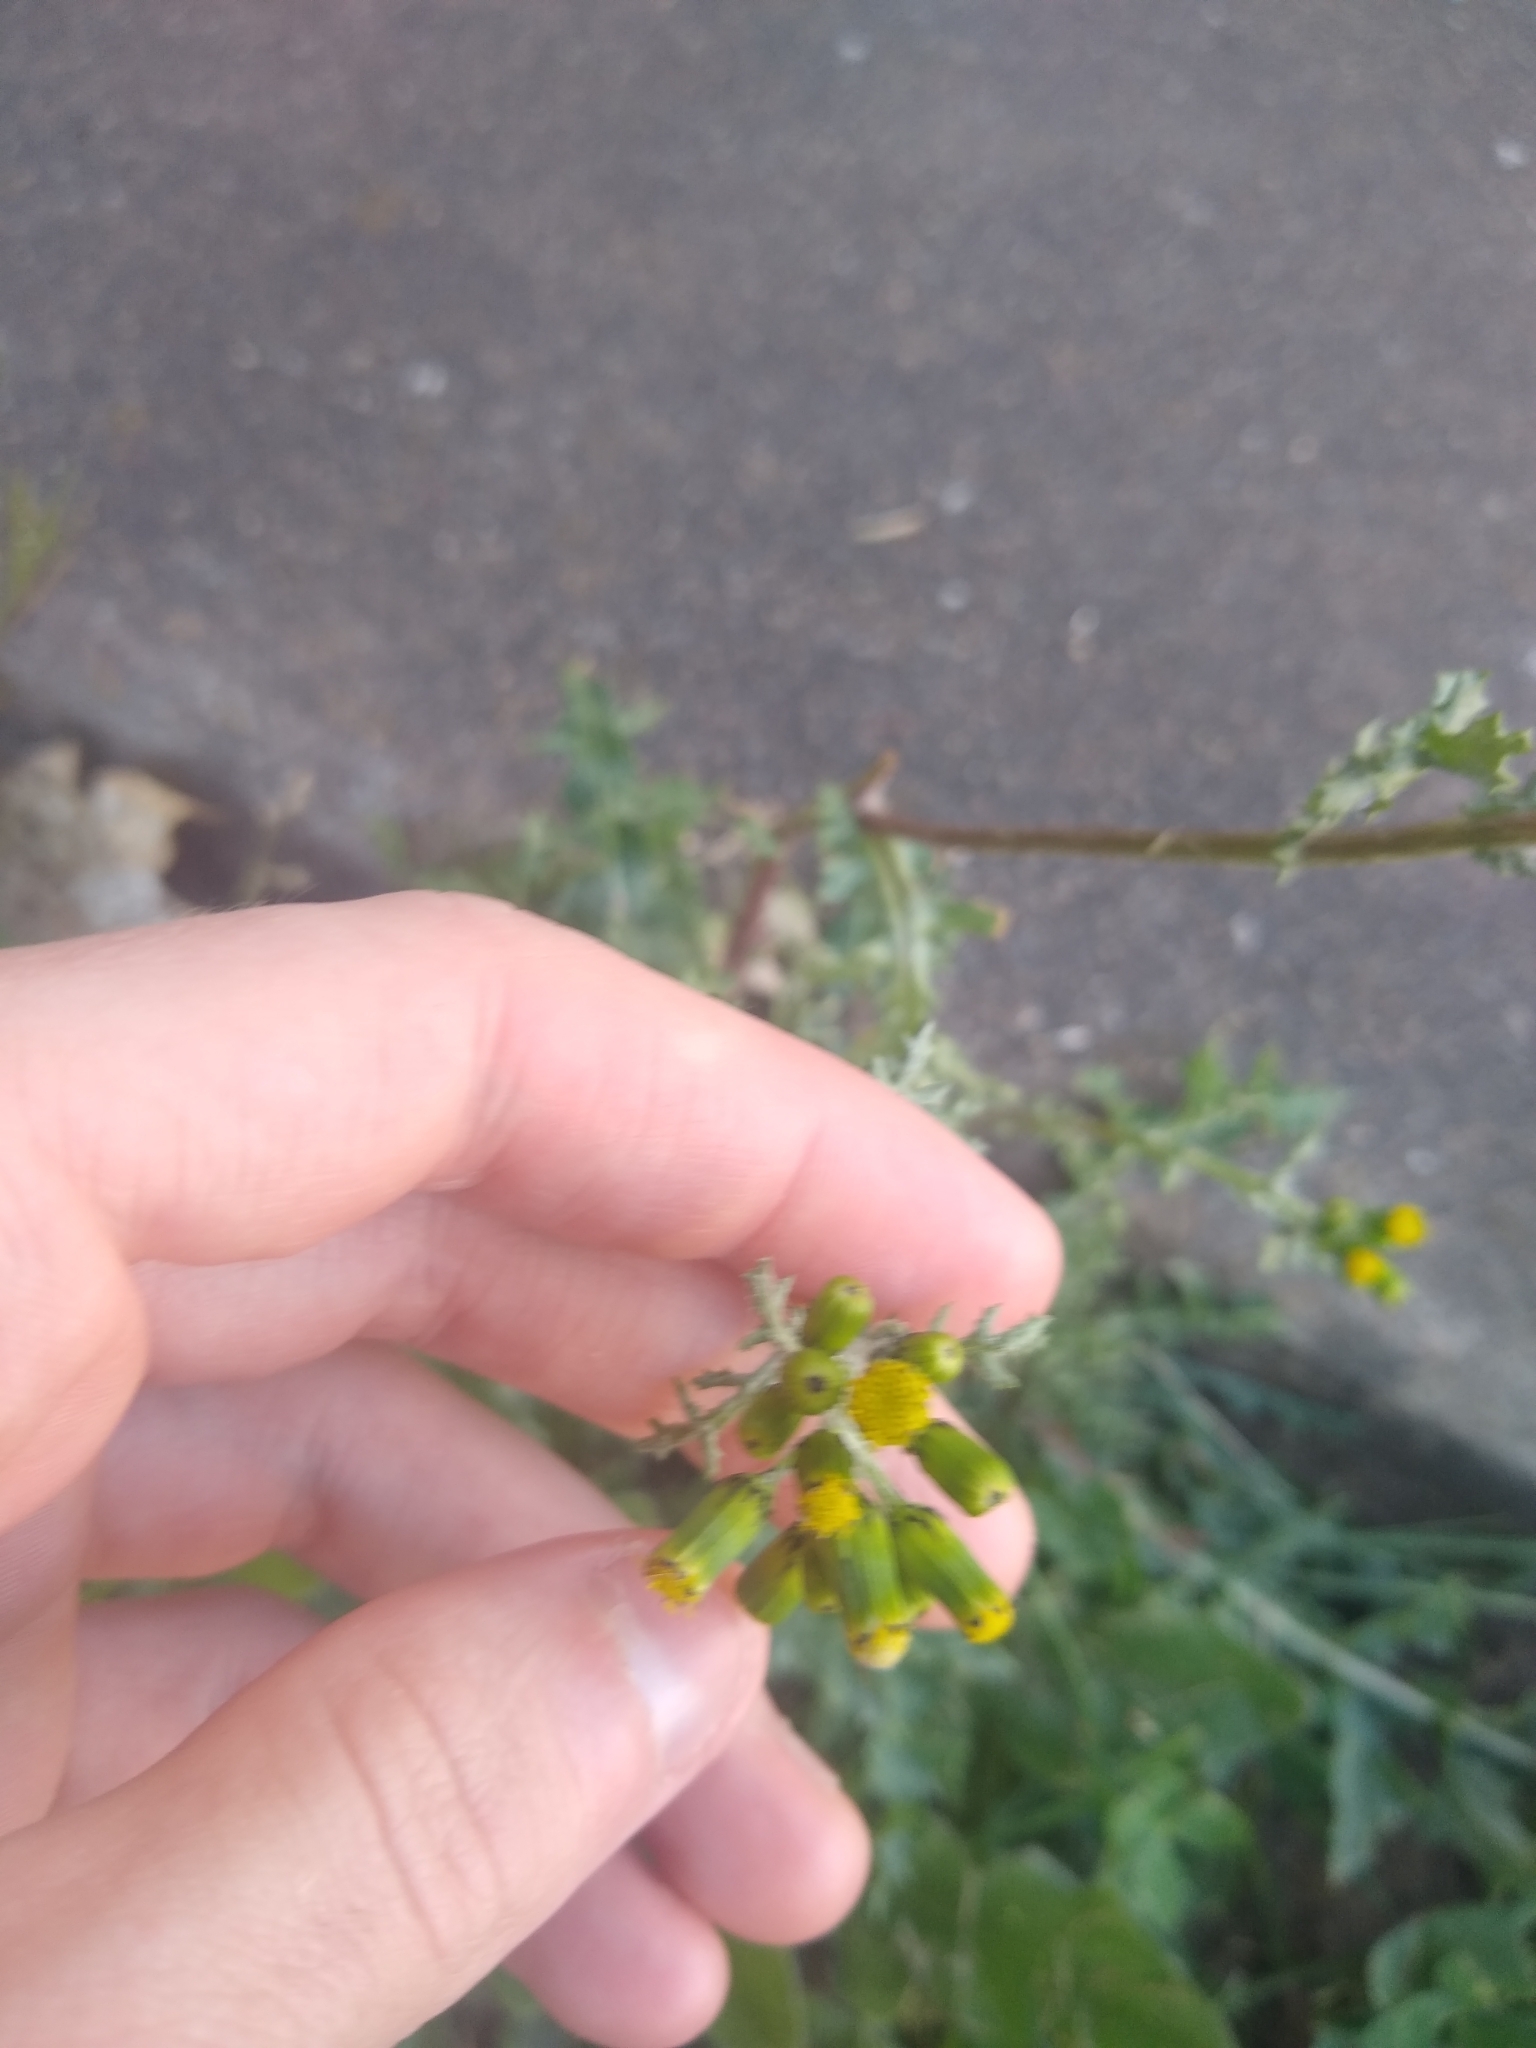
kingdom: Plantae
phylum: Tracheophyta
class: Magnoliopsida
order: Asterales
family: Asteraceae
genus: Senecio
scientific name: Senecio vulgaris
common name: Old-man-in-the-spring
